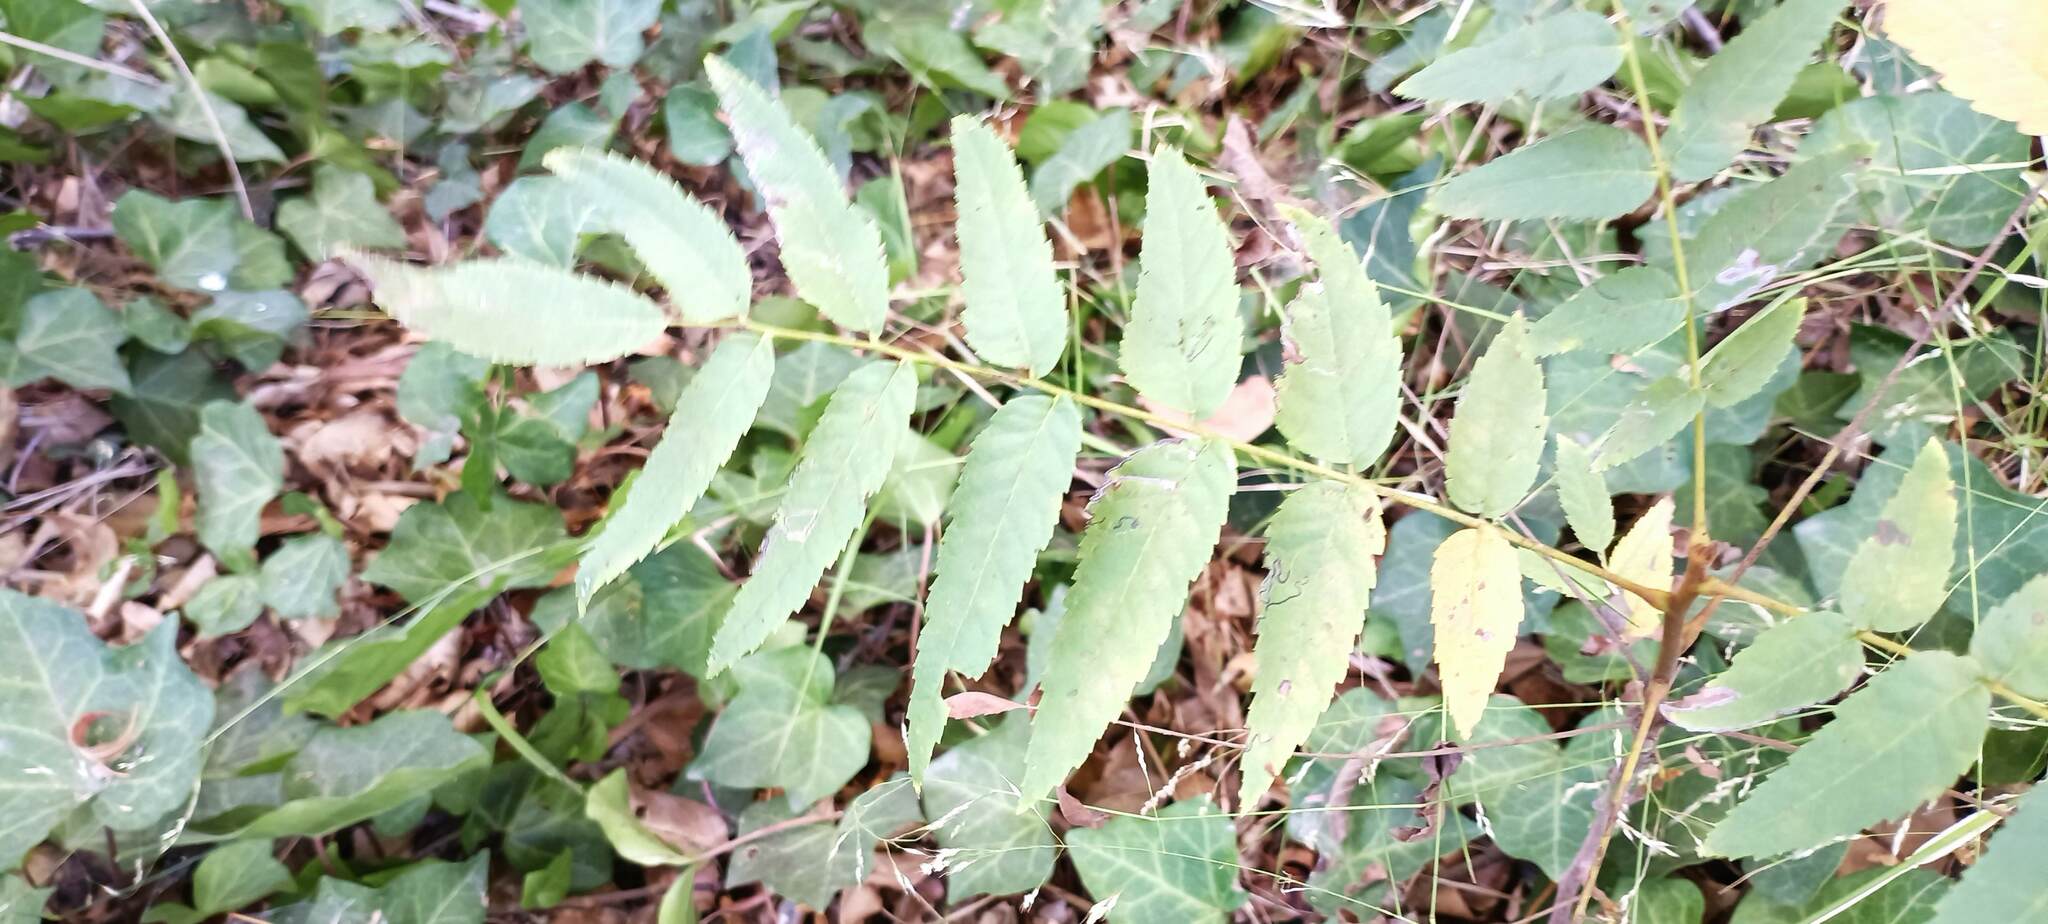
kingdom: Plantae
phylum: Tracheophyta
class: Magnoliopsida
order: Fagales
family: Juglandaceae
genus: Juglans
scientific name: Juglans californica
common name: Southern california black walnut
